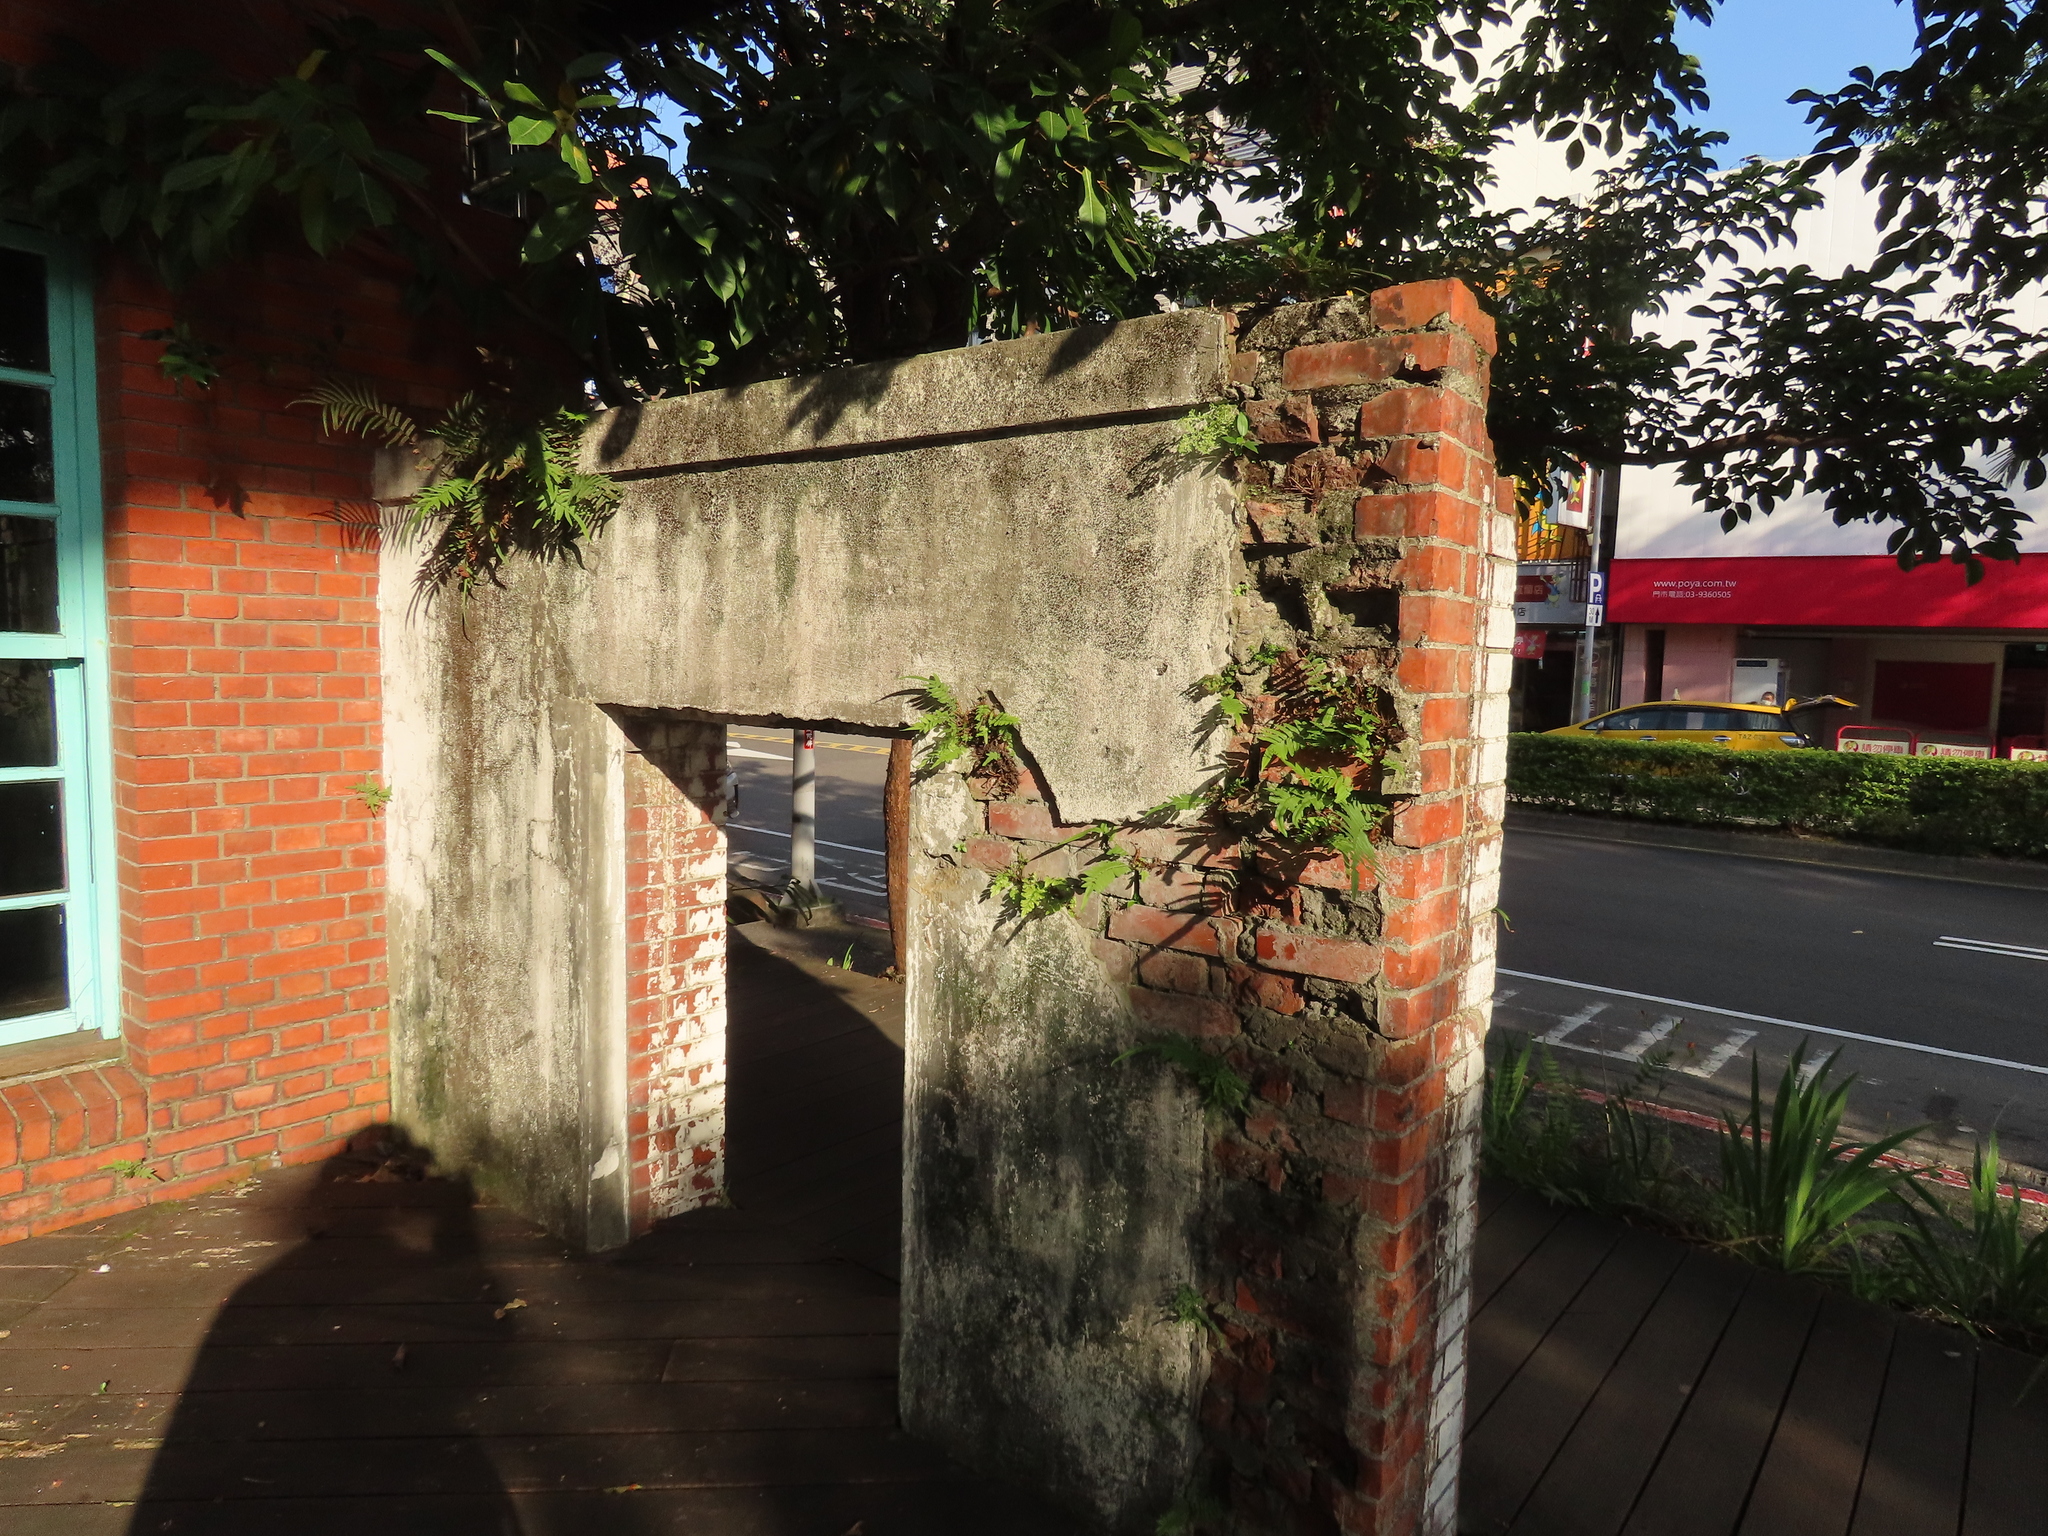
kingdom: Plantae
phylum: Tracheophyta
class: Polypodiopsida
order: Polypodiales
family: Pteridaceae
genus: Pteris
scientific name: Pteris vittata
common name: Ladder brake
